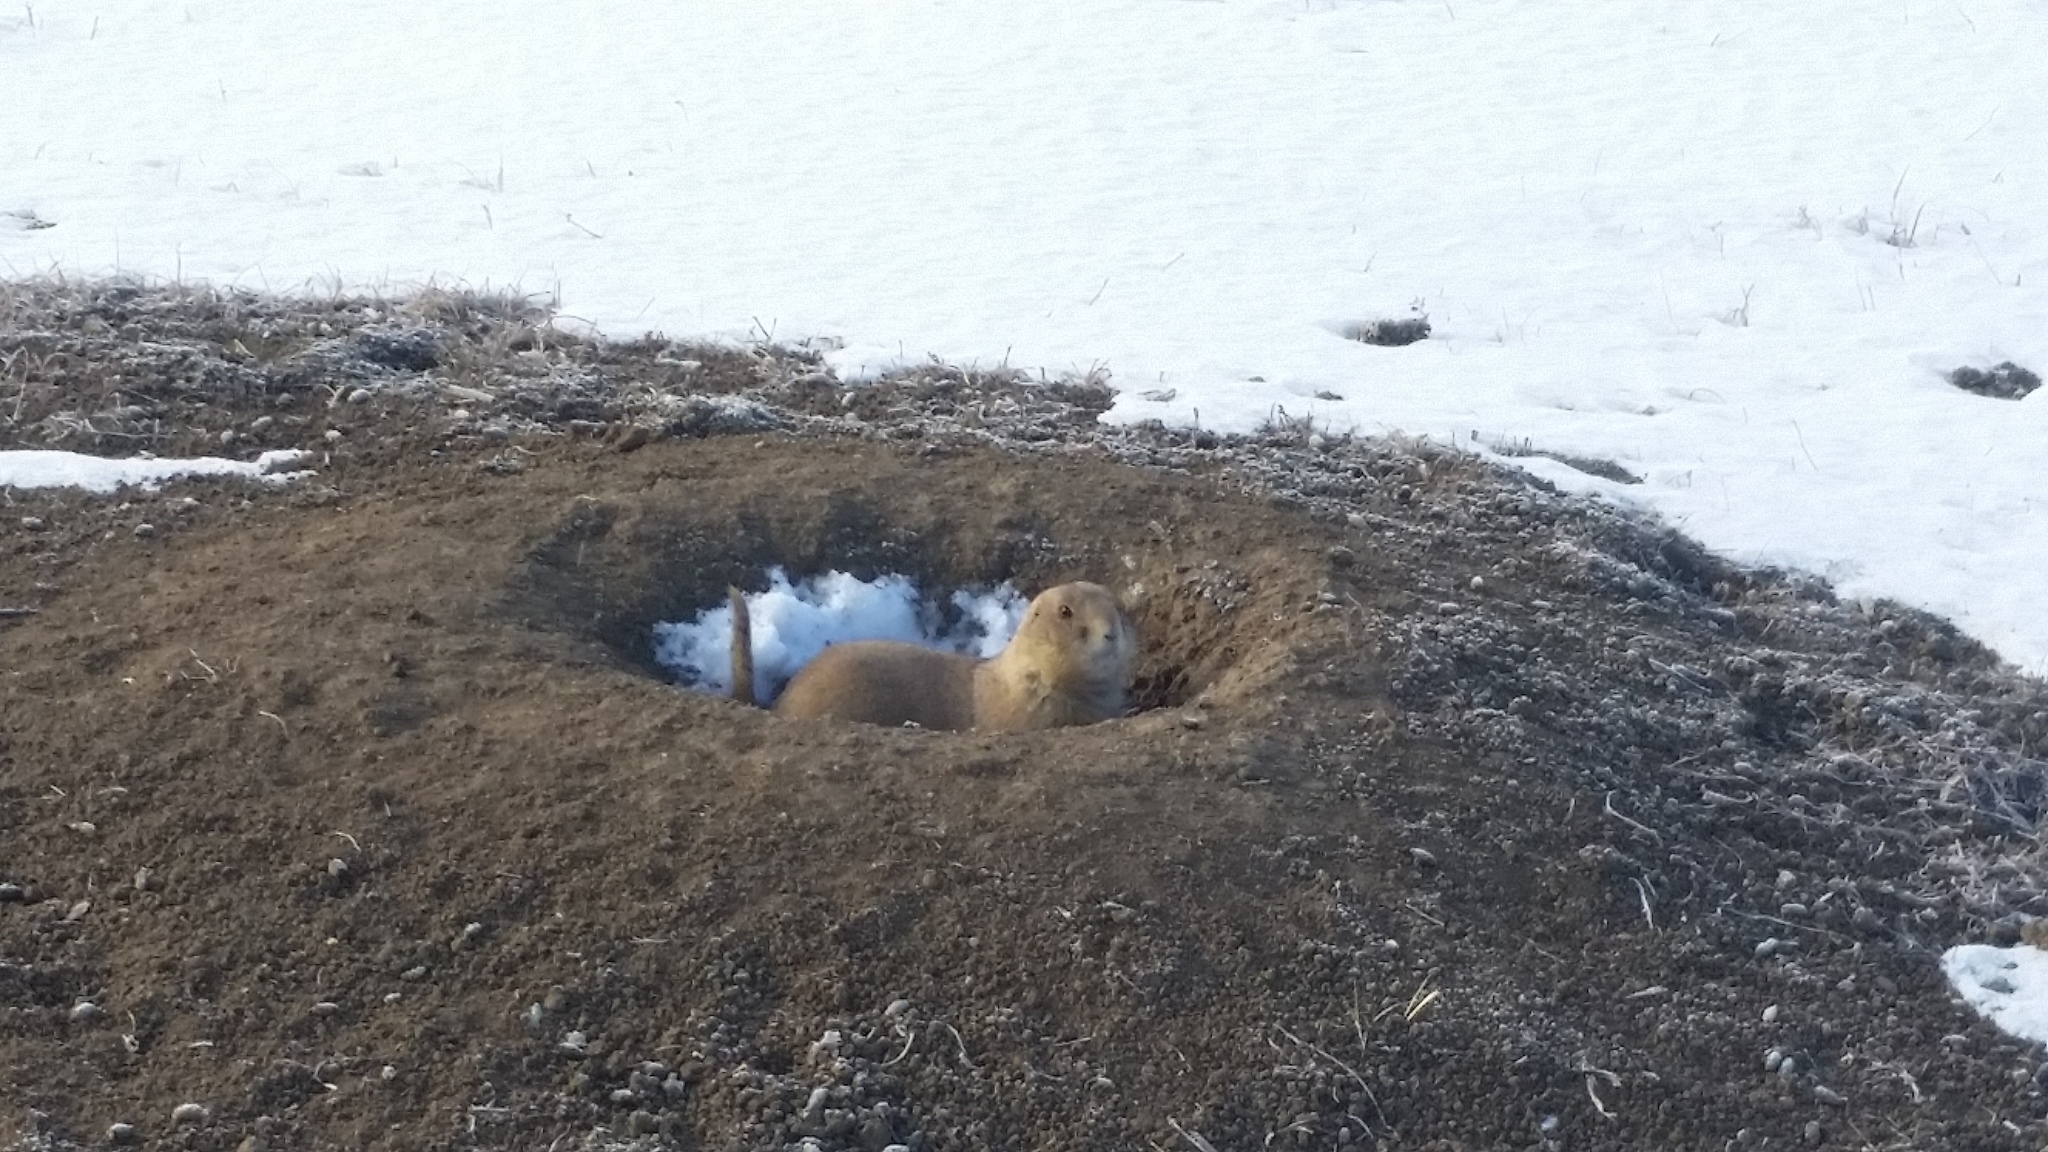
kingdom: Animalia
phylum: Chordata
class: Mammalia
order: Rodentia
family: Sciuridae
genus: Cynomys
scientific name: Cynomys ludovicianus
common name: Black-tailed prairie dog
